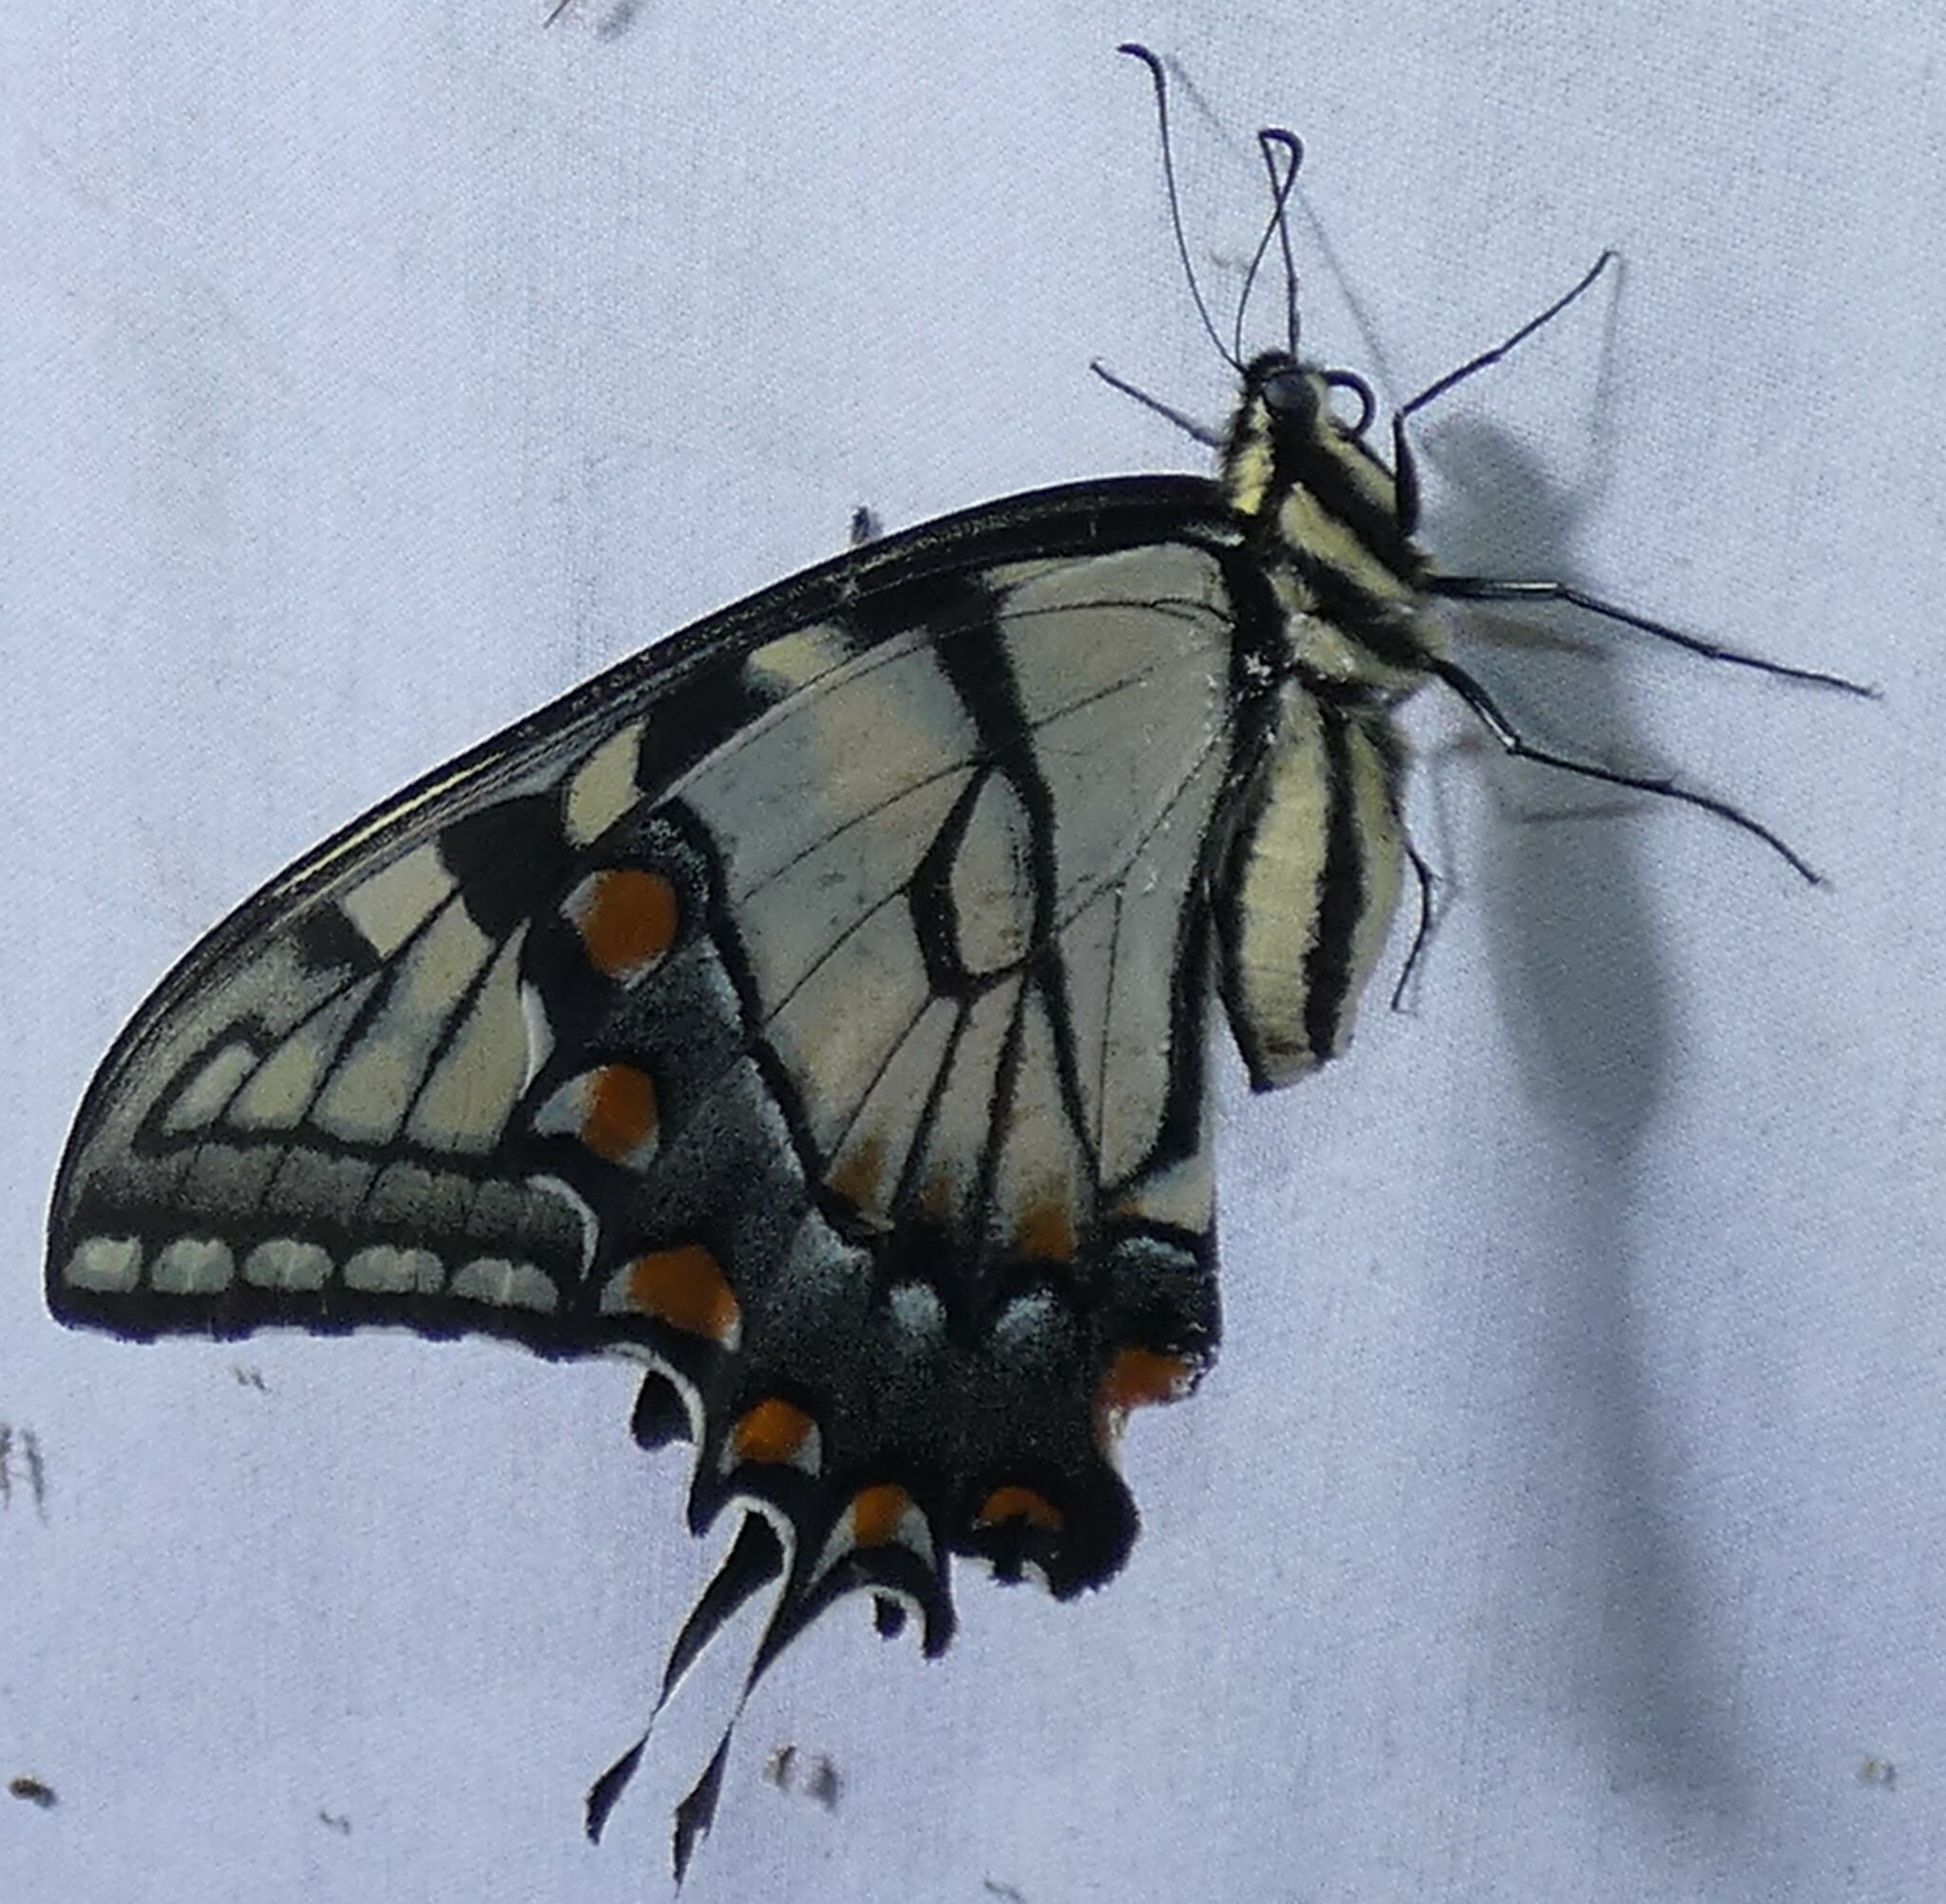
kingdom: Animalia
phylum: Arthropoda
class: Insecta
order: Lepidoptera
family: Papilionidae
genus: Papilio
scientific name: Papilio glaucus
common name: Tiger swallowtail
